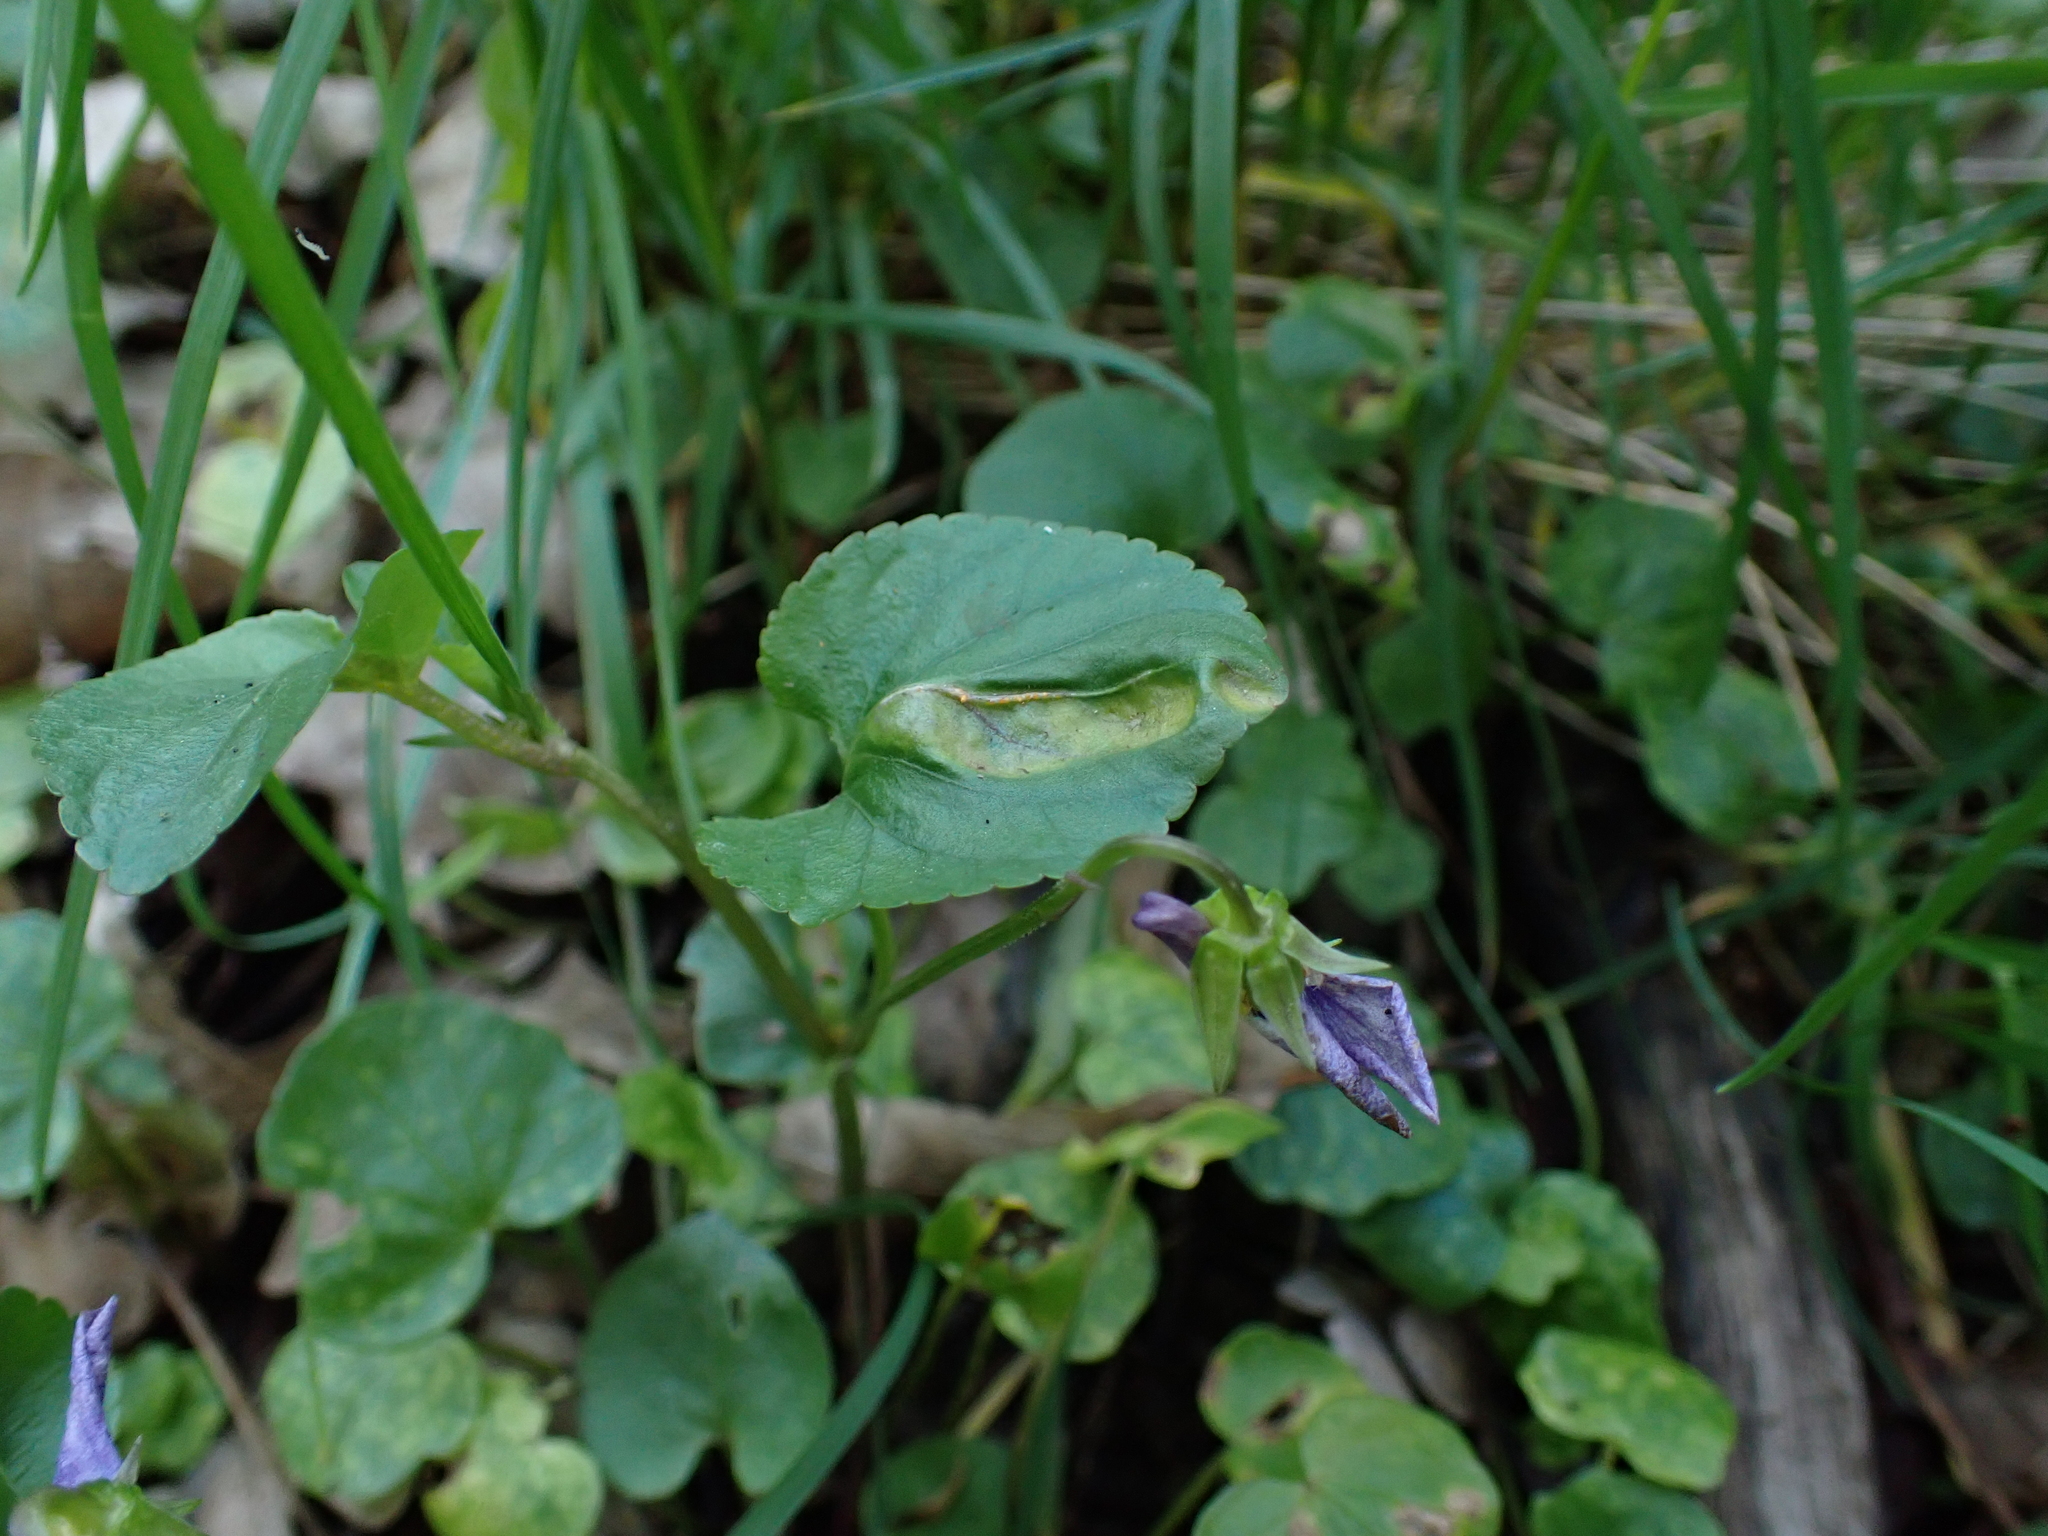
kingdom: Fungi
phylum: Basidiomycota
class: Pucciniomycetes
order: Pucciniales
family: Pucciniaceae
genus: Puccinia
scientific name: Puccinia violae
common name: Violet rust
